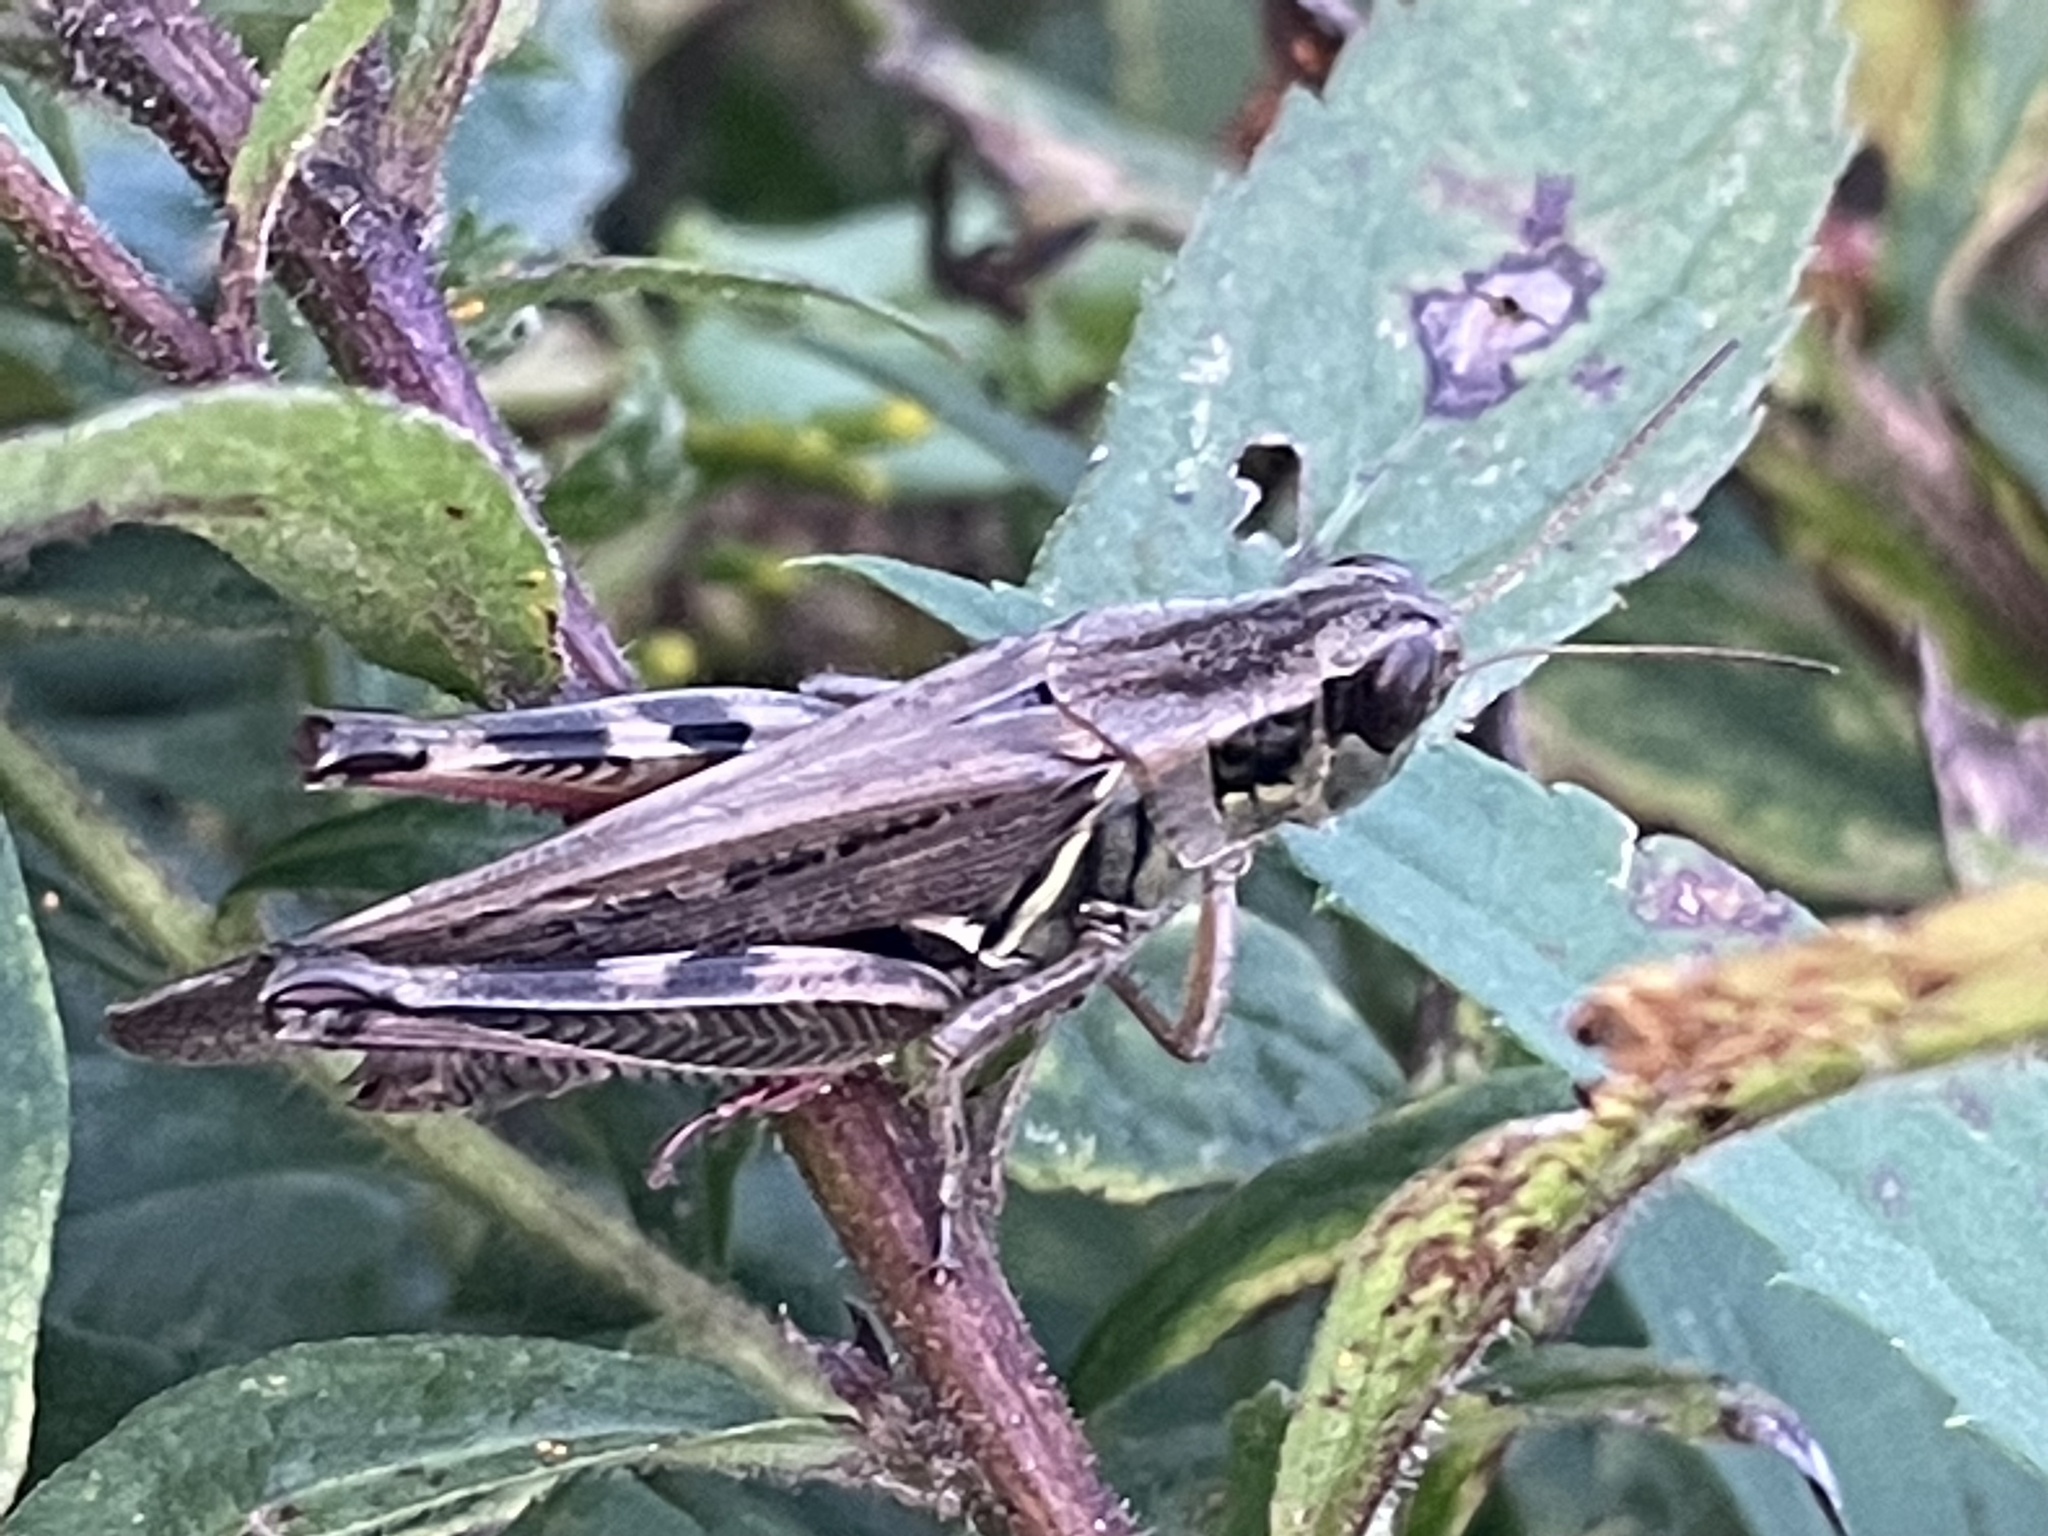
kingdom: Animalia
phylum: Arthropoda
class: Insecta
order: Orthoptera
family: Acrididae
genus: Melanoplus
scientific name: Melanoplus femurrubrum
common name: Red-legged grasshopper
